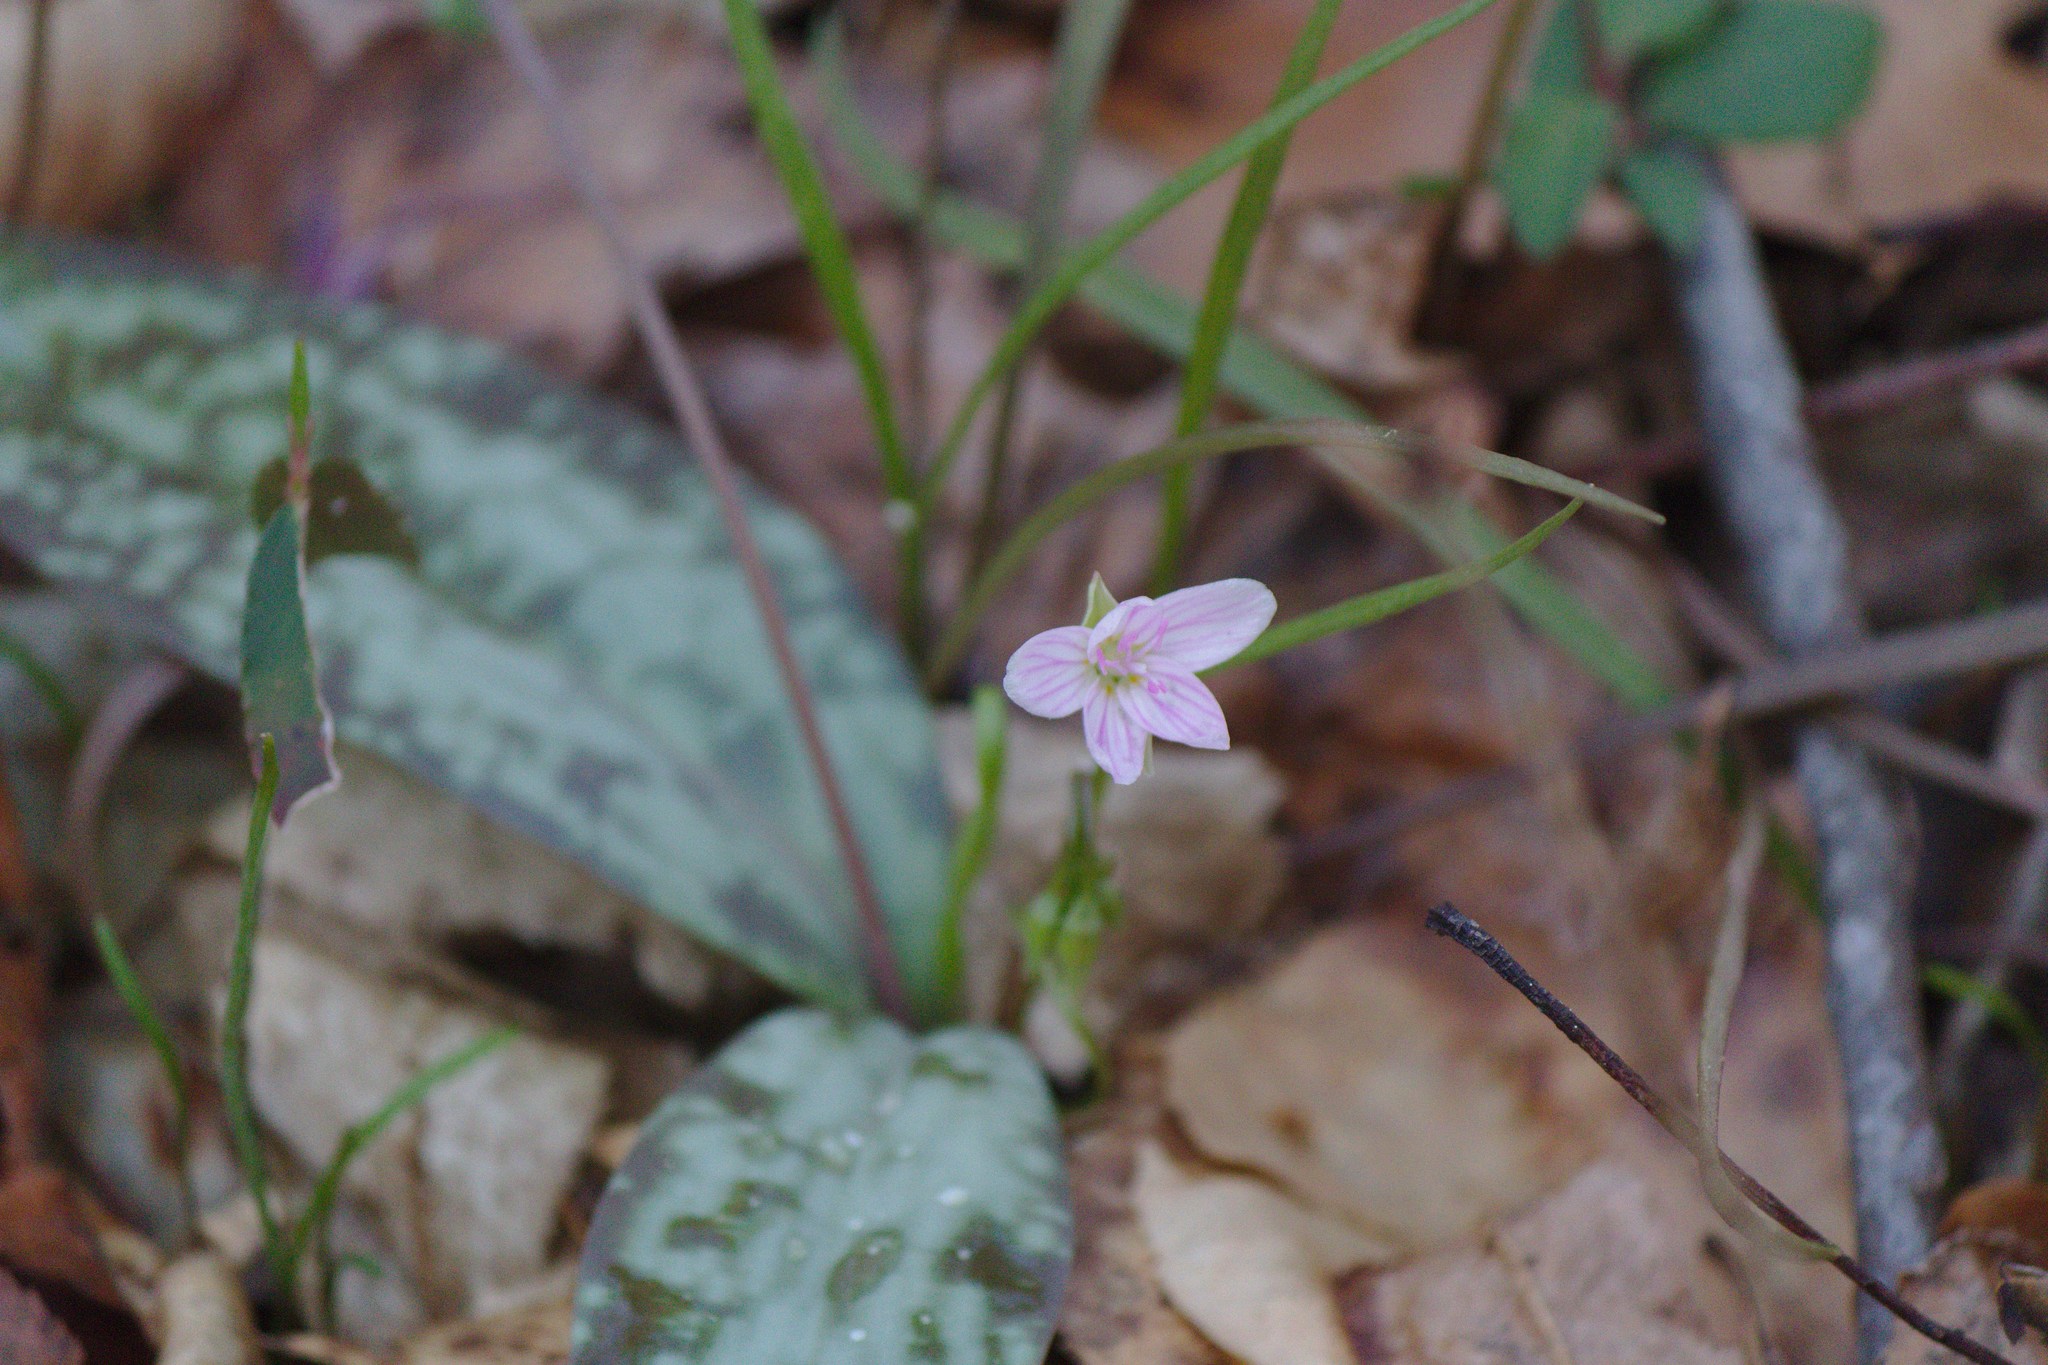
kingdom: Plantae
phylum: Tracheophyta
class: Magnoliopsida
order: Caryophyllales
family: Montiaceae
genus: Claytonia
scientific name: Claytonia virginica
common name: Virginia springbeauty
